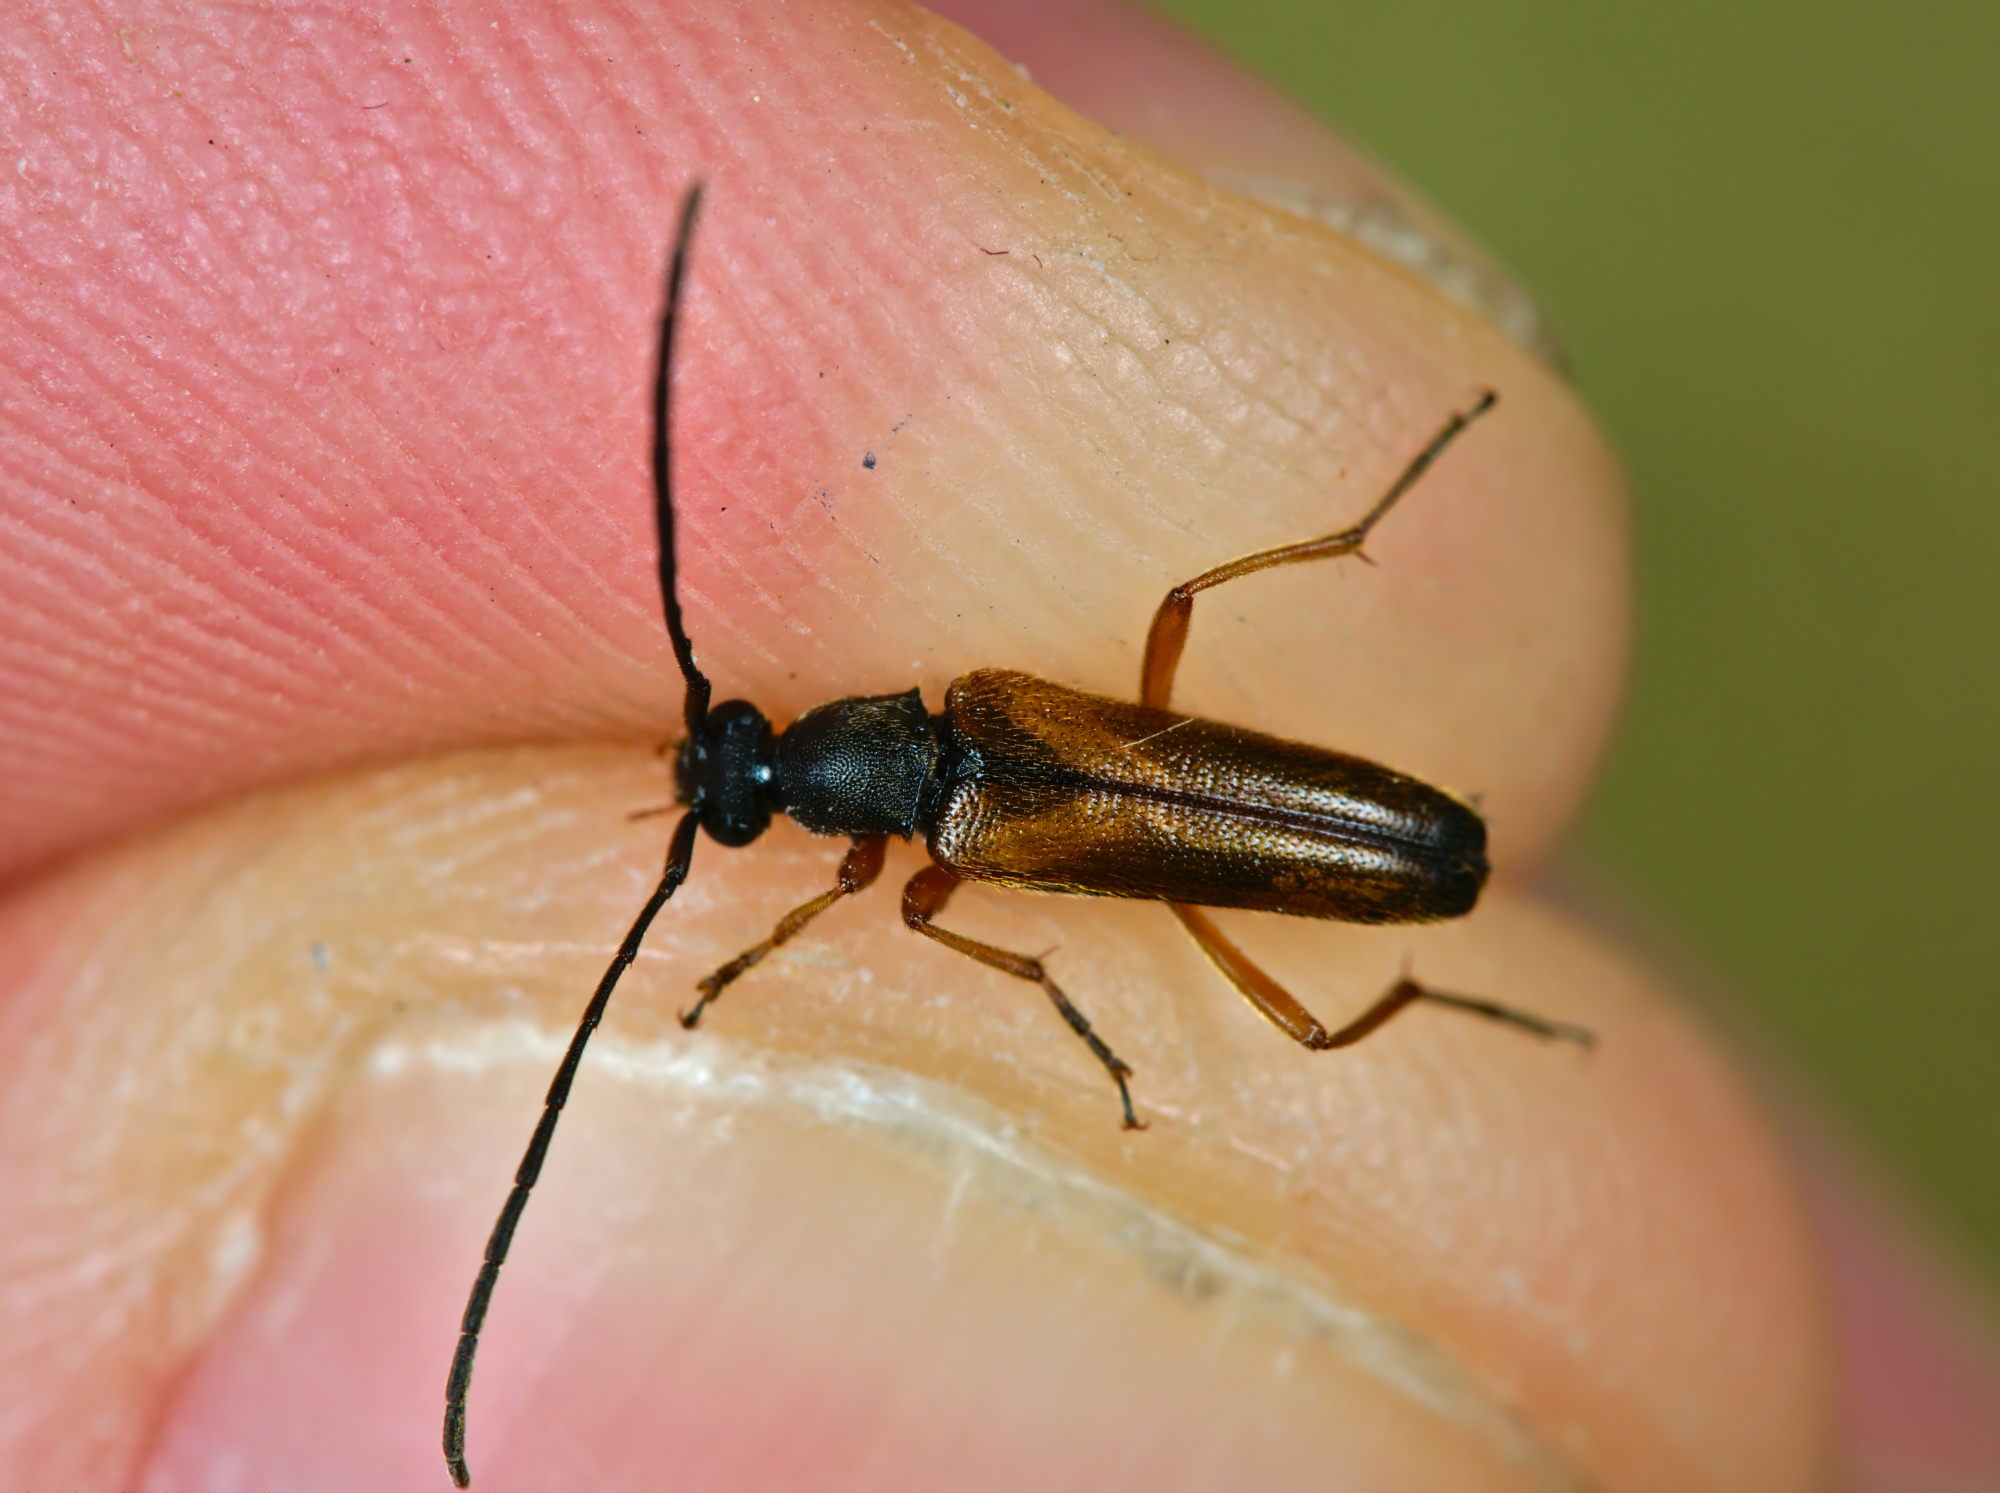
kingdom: Animalia
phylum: Arthropoda
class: Insecta
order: Coleoptera
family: Cerambycidae
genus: Alosterna
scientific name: Alosterna tabacicolor
